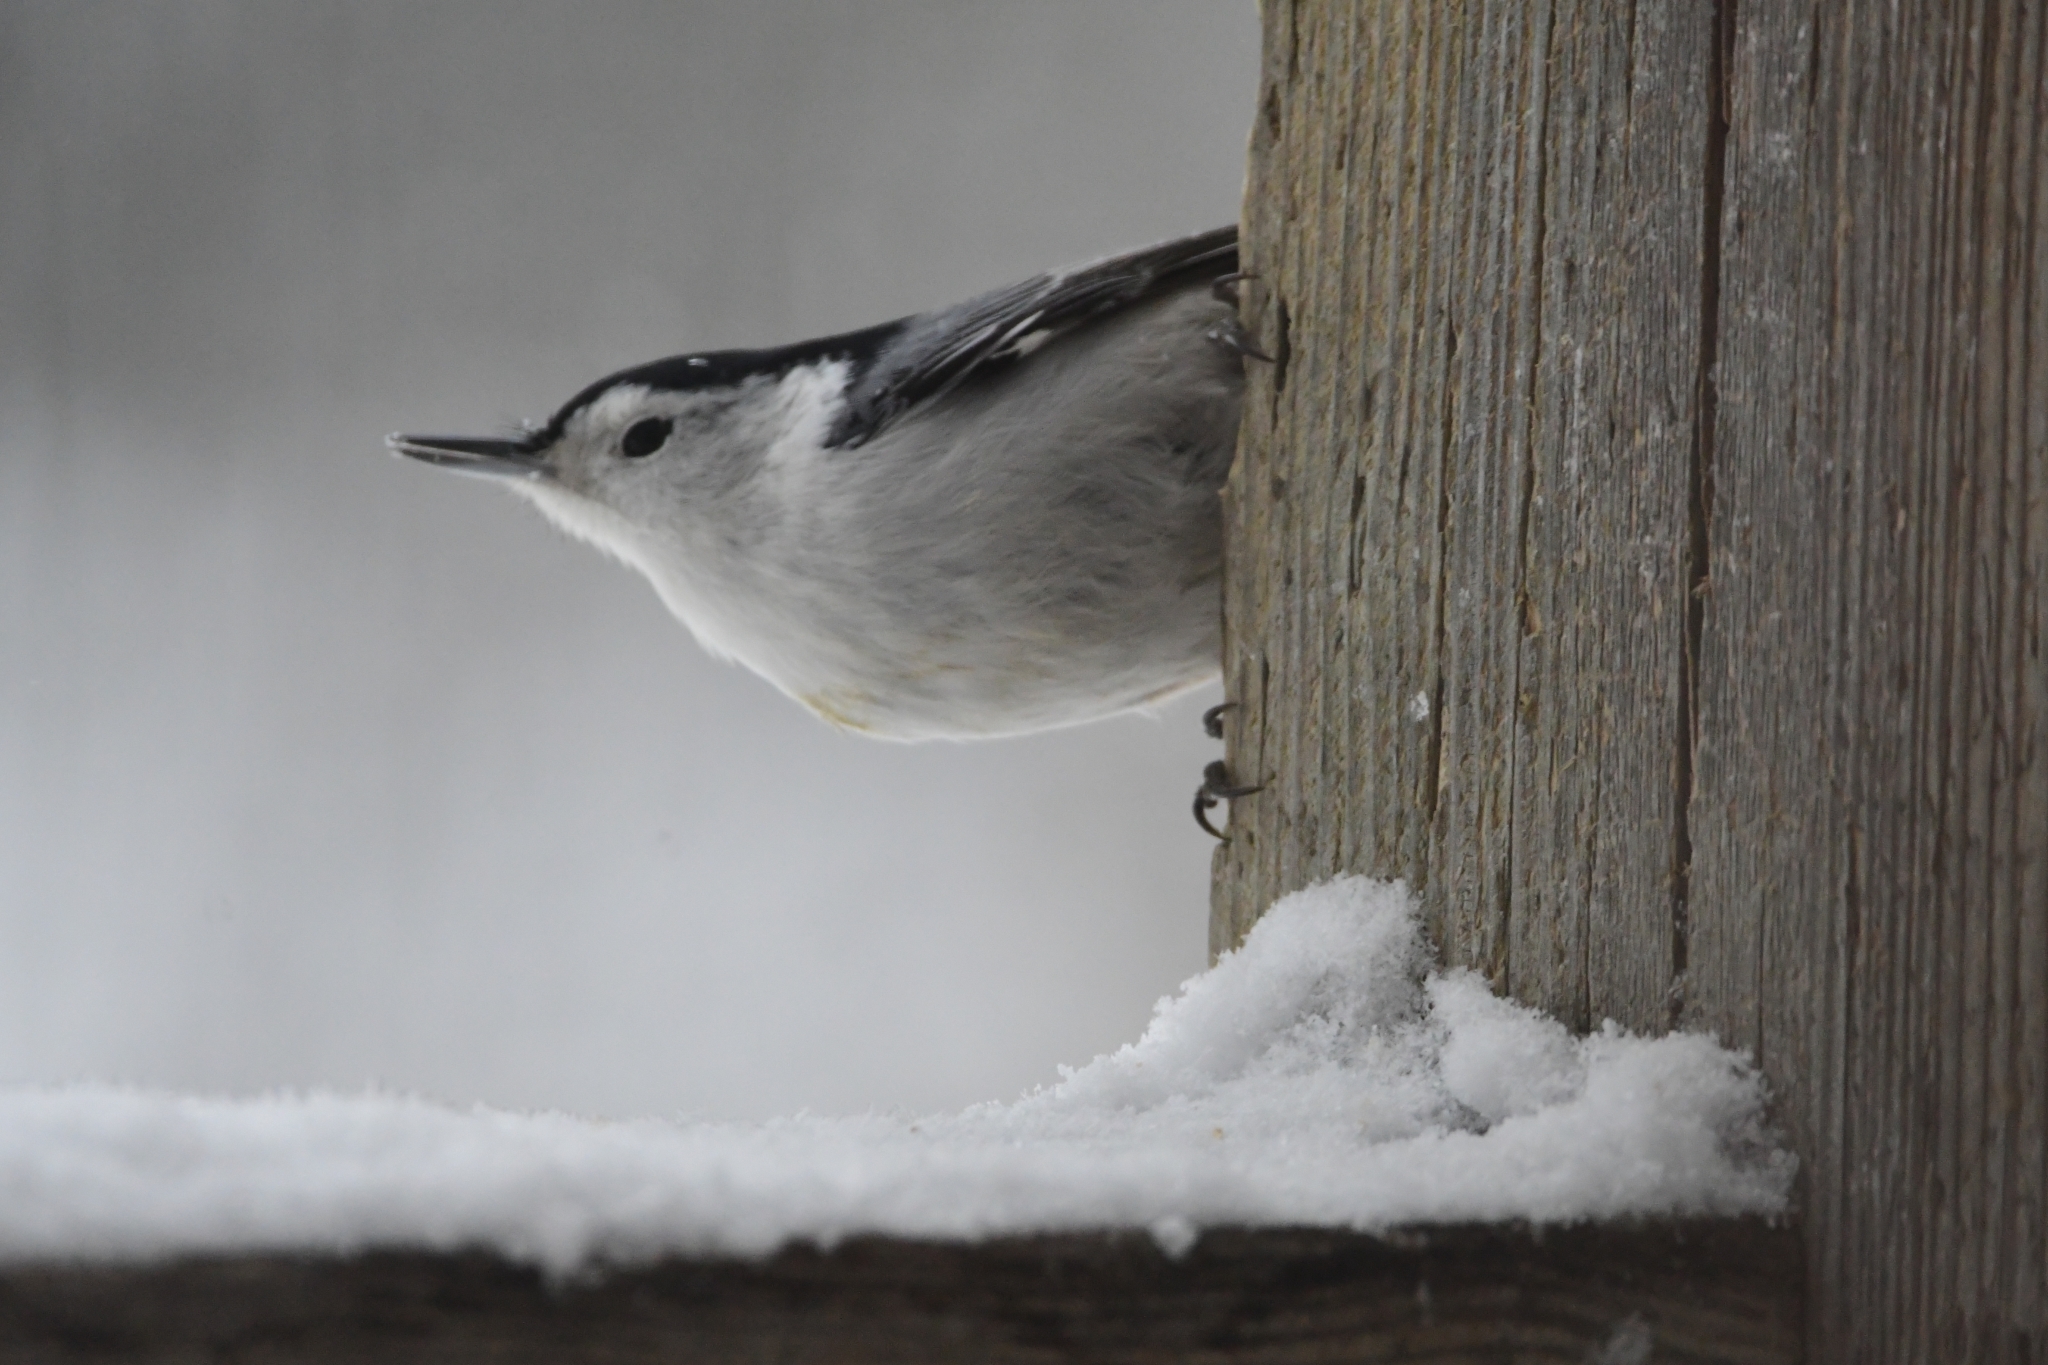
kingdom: Animalia
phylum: Chordata
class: Aves
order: Passeriformes
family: Sittidae
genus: Sitta
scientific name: Sitta carolinensis
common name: White-breasted nuthatch
